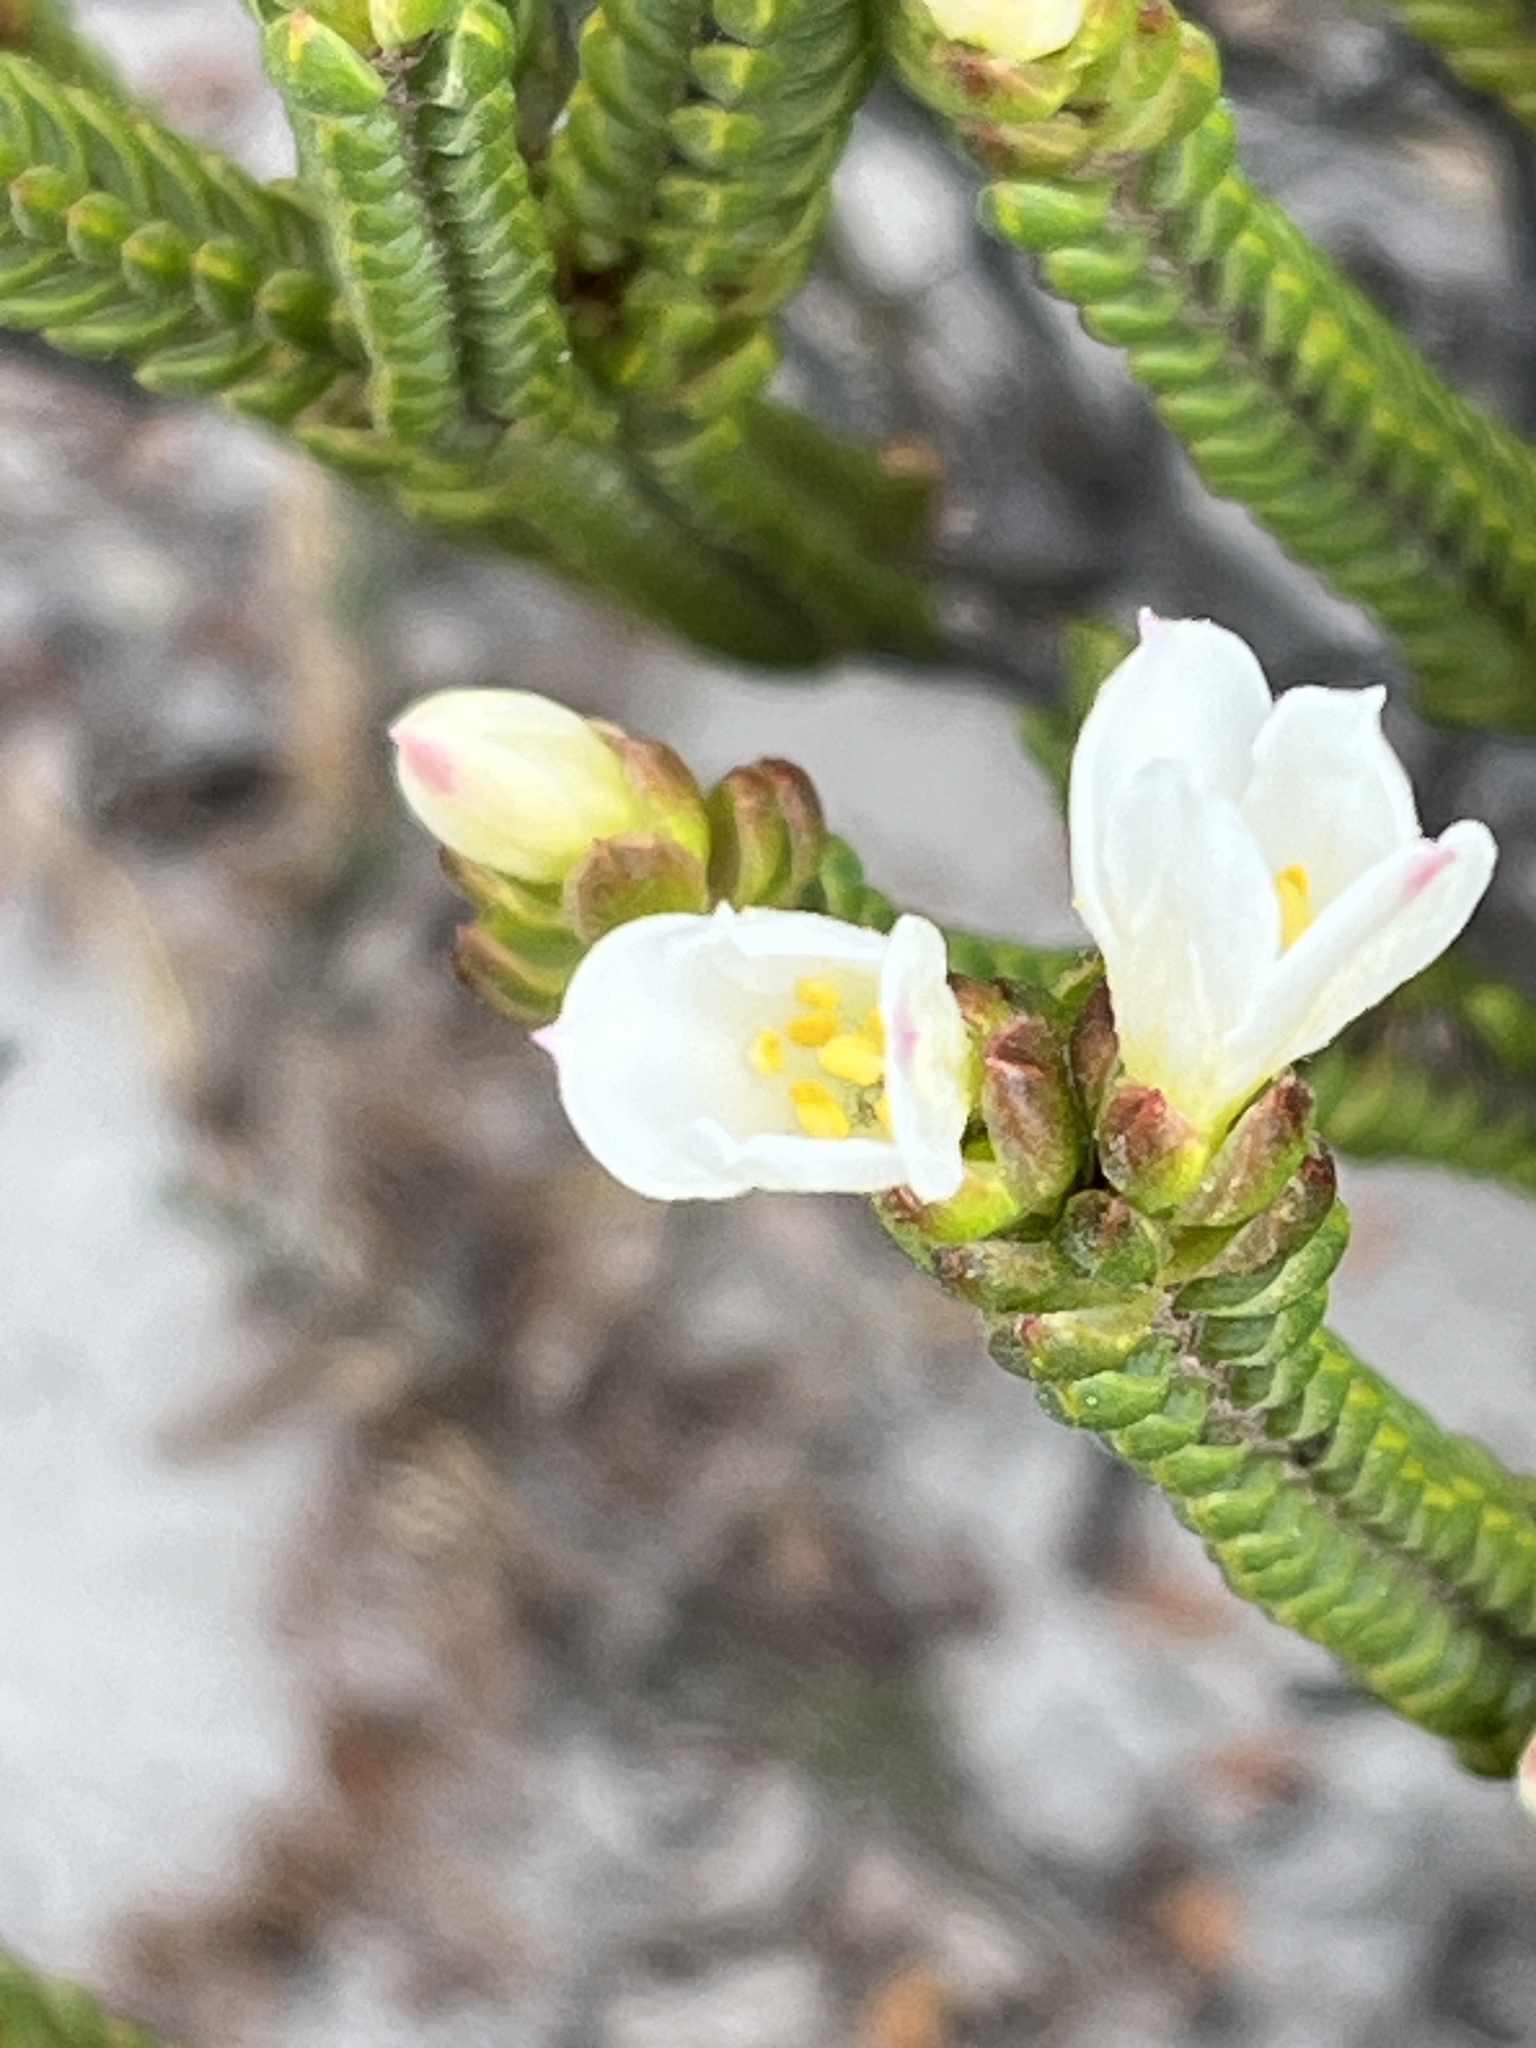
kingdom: Plantae
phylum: Tracheophyta
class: Magnoliopsida
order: Malvales
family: Thymelaeaceae
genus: Lachnaea
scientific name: Lachnaea grandiflora
